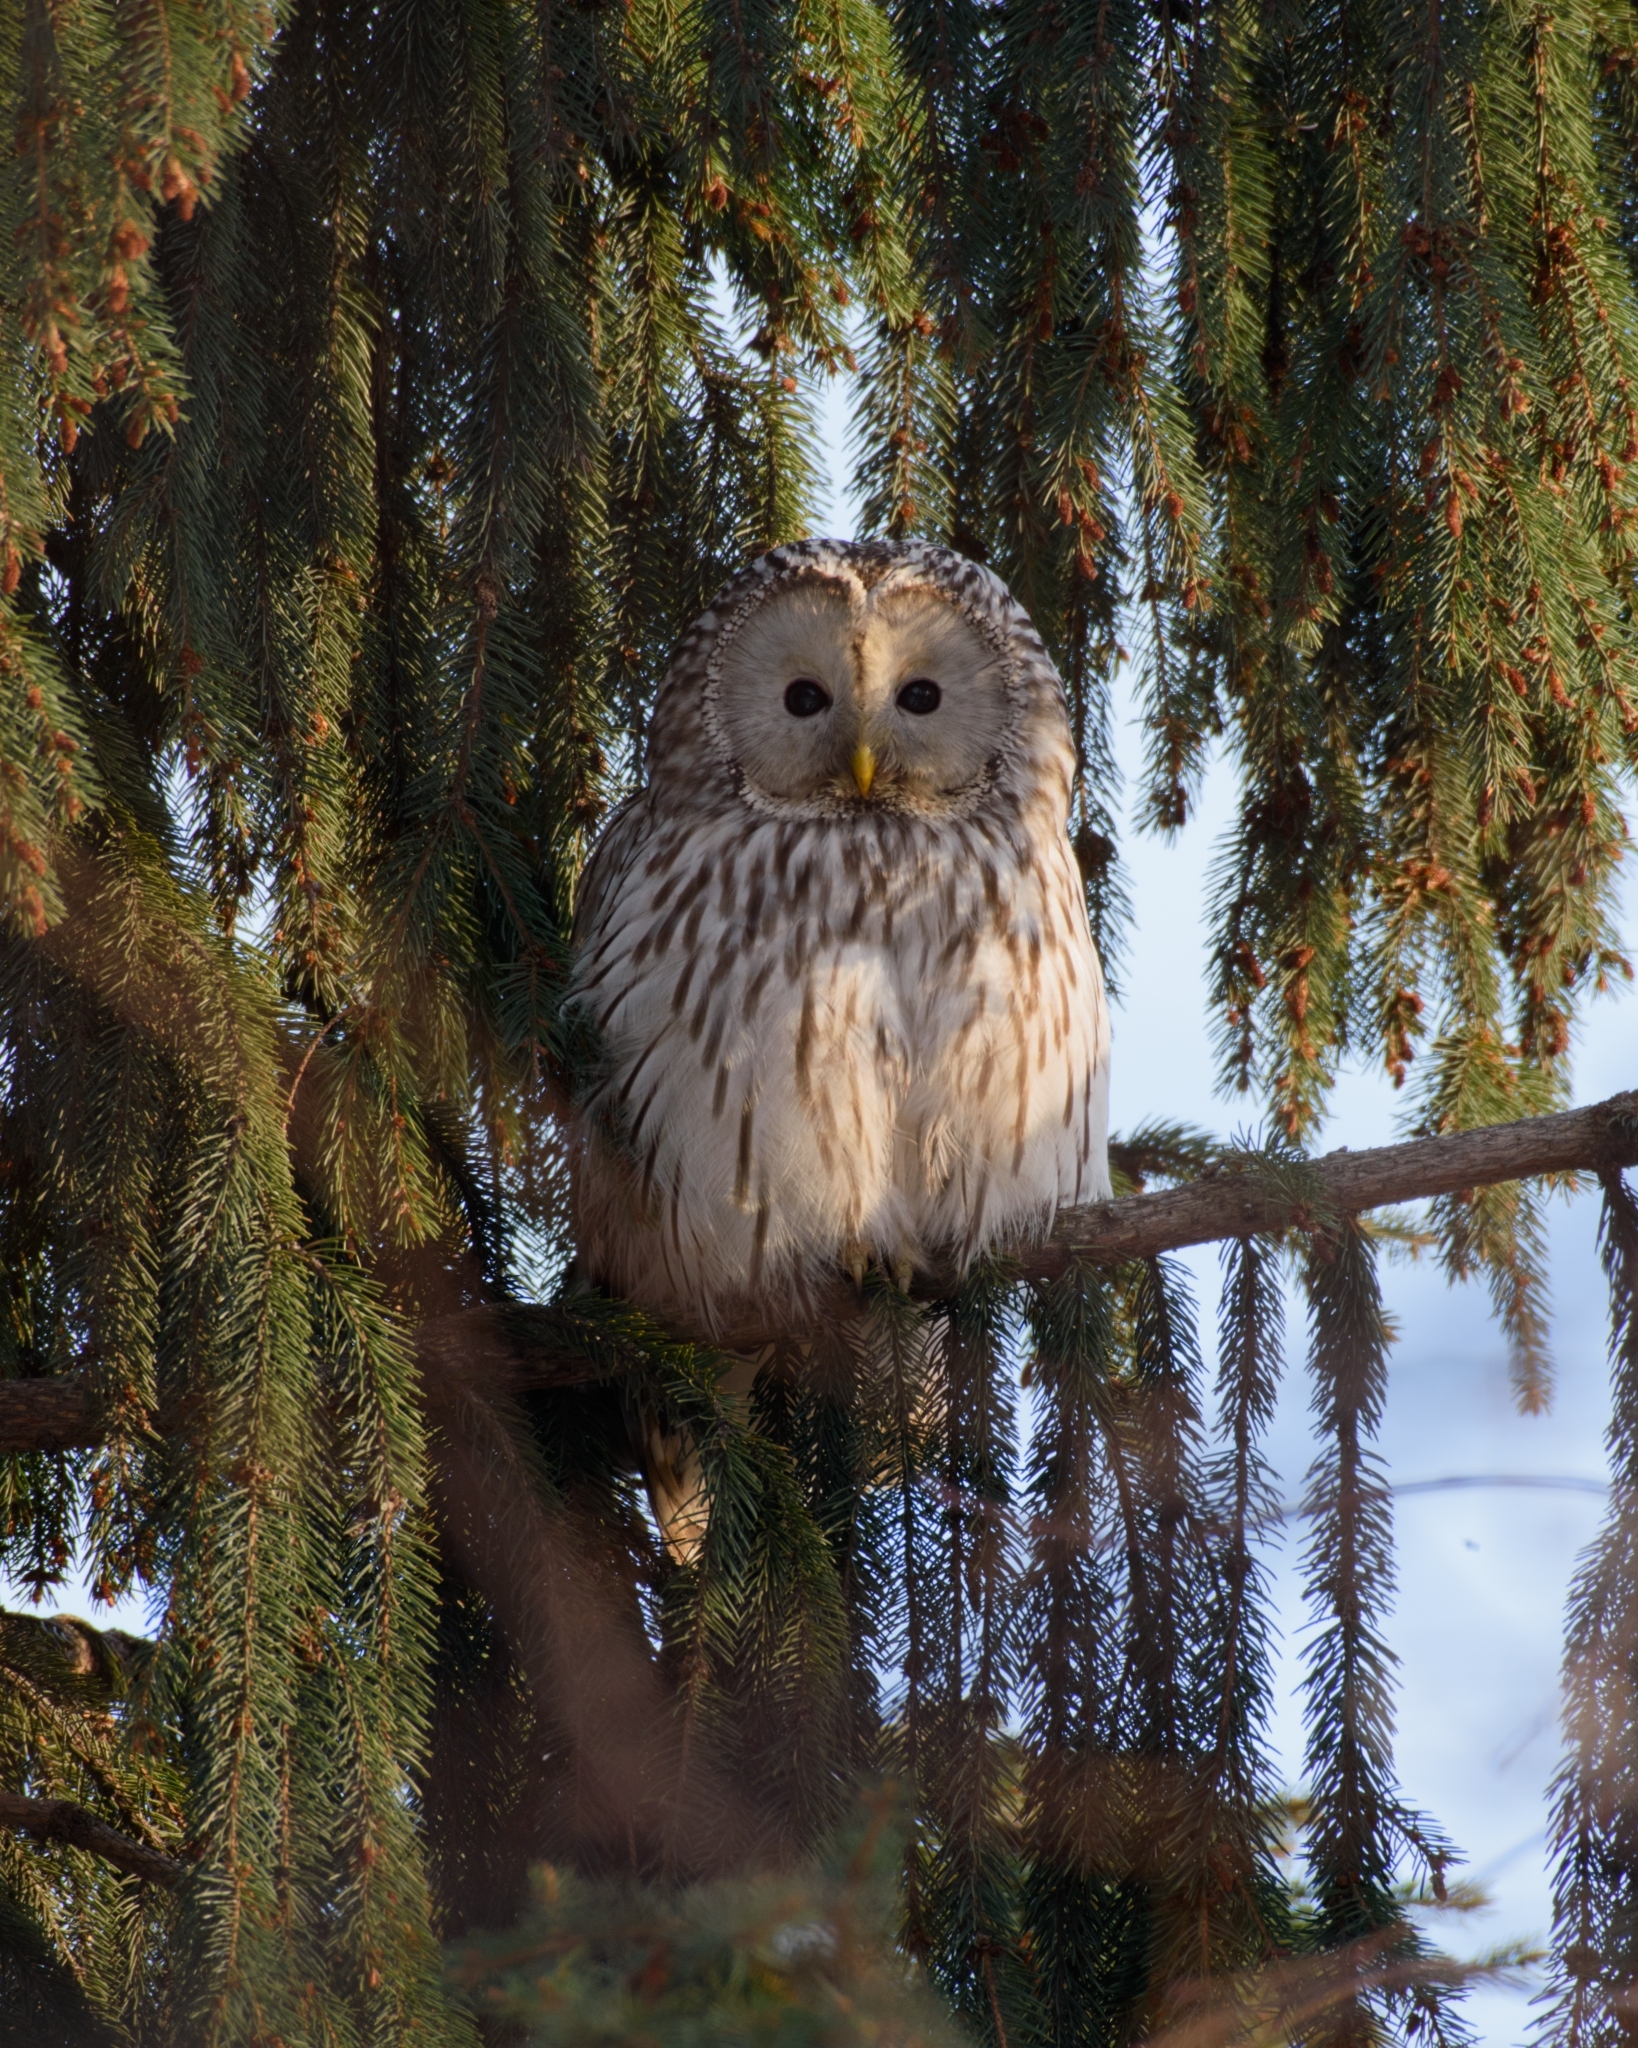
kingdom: Animalia
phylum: Chordata
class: Aves
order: Strigiformes
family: Strigidae
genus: Strix
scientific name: Strix uralensis
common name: Ural owl
